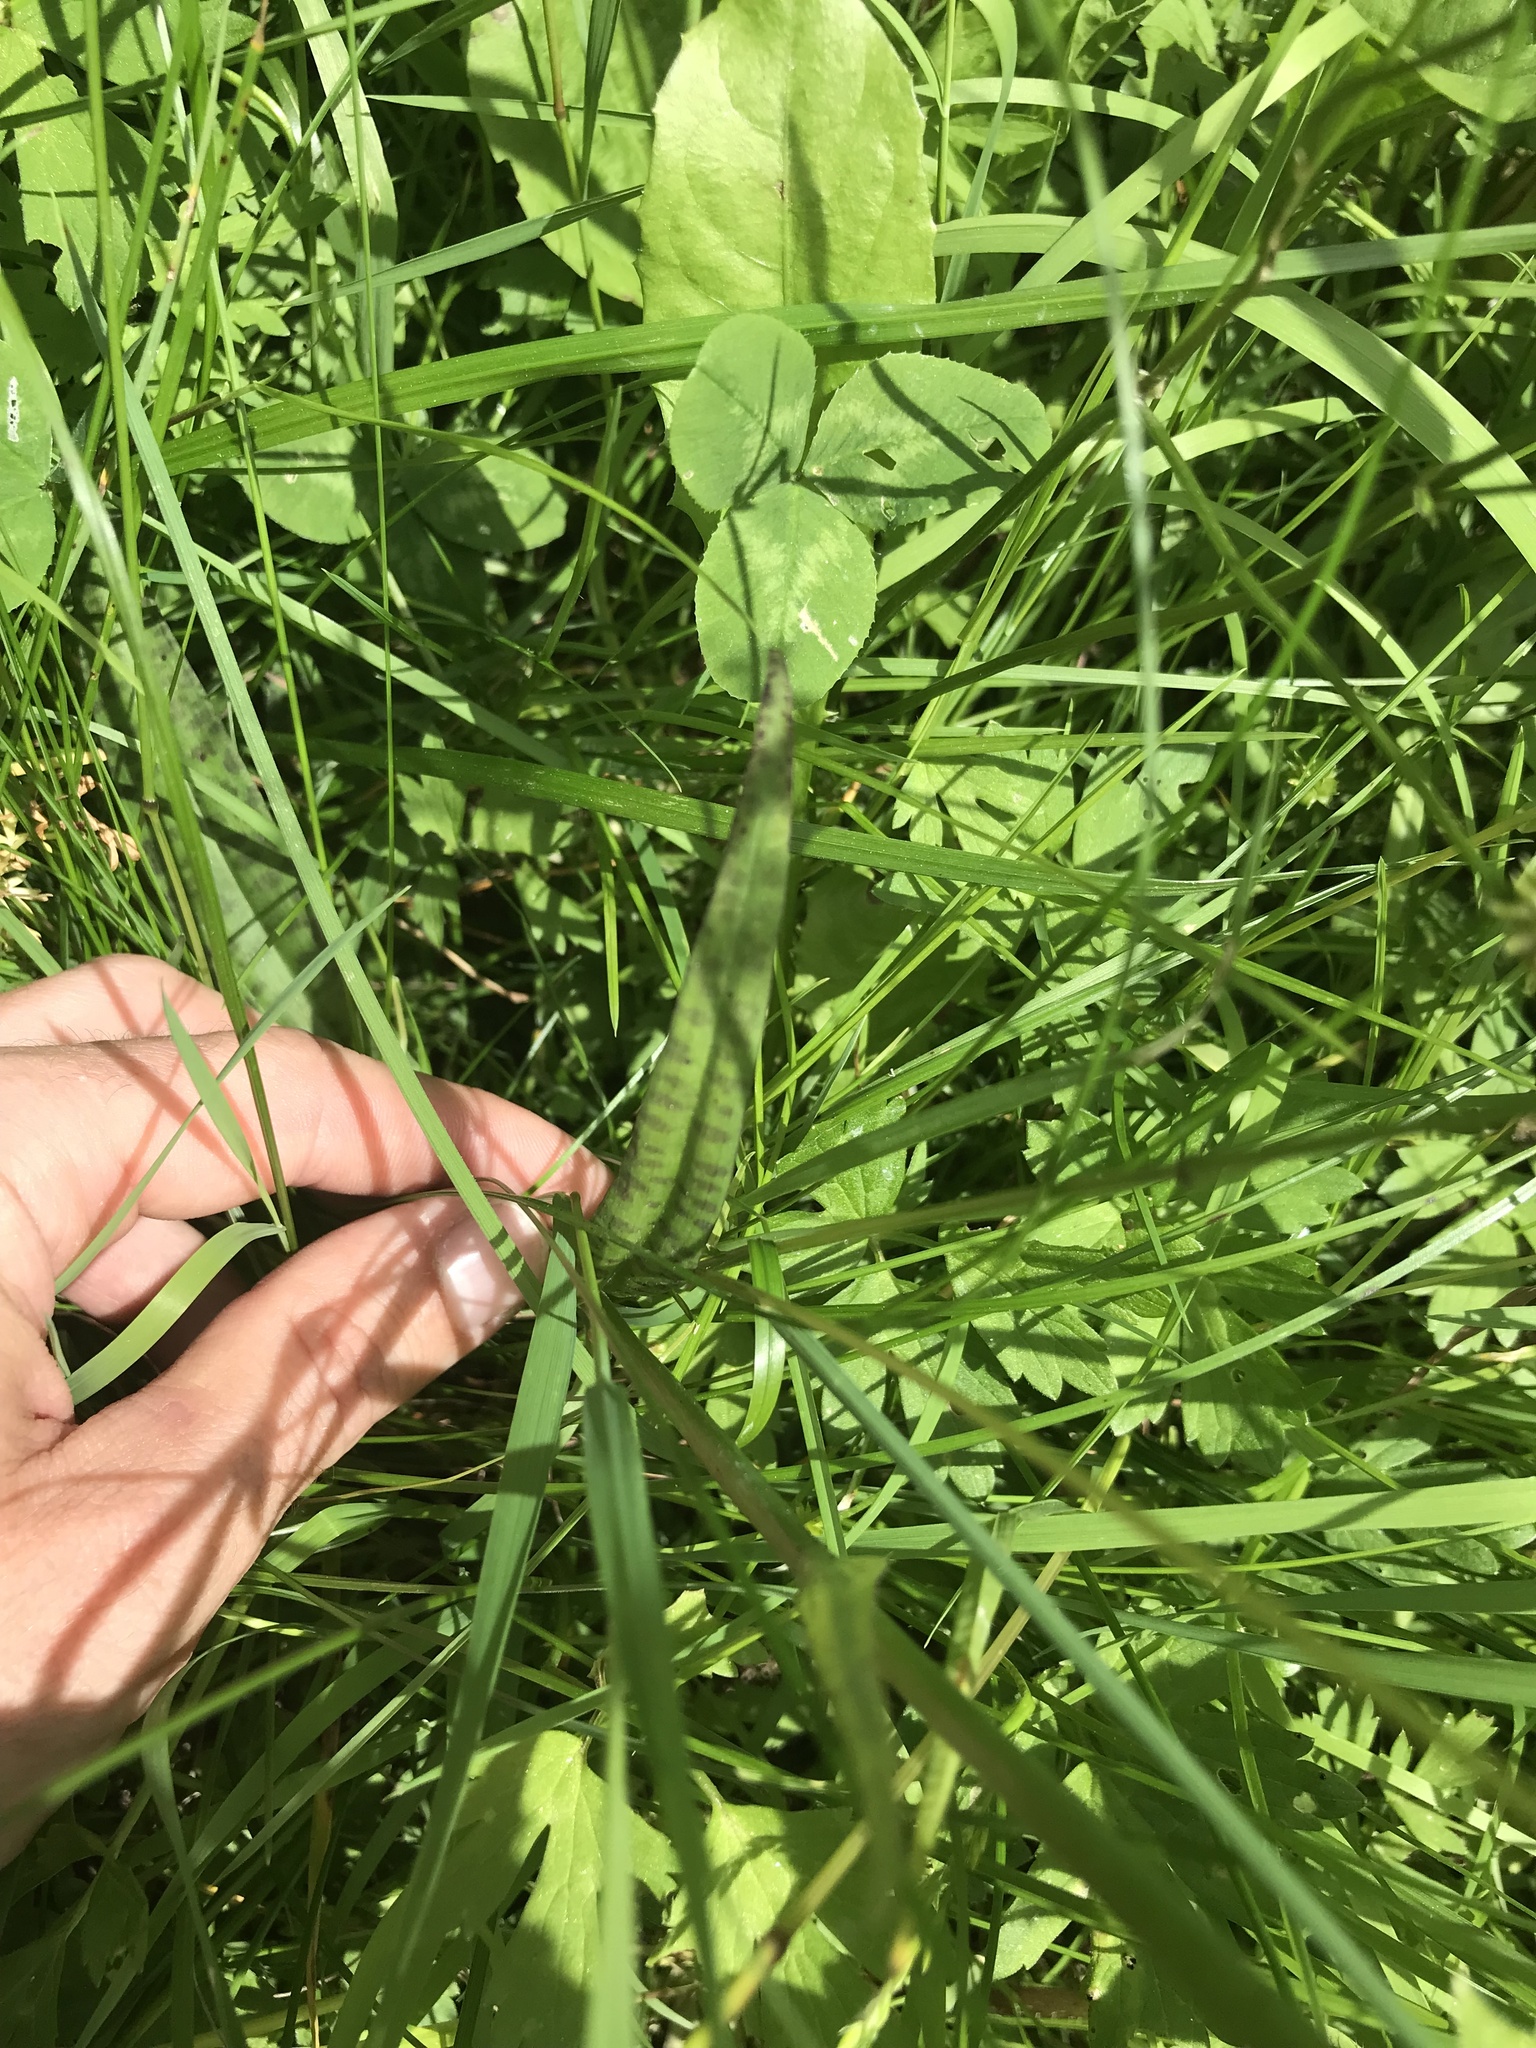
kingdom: Plantae
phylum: Tracheophyta
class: Liliopsida
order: Asparagales
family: Orchidaceae
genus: Dactylorhiza
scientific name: Dactylorhiza maculata
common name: Heath spotted-orchid
